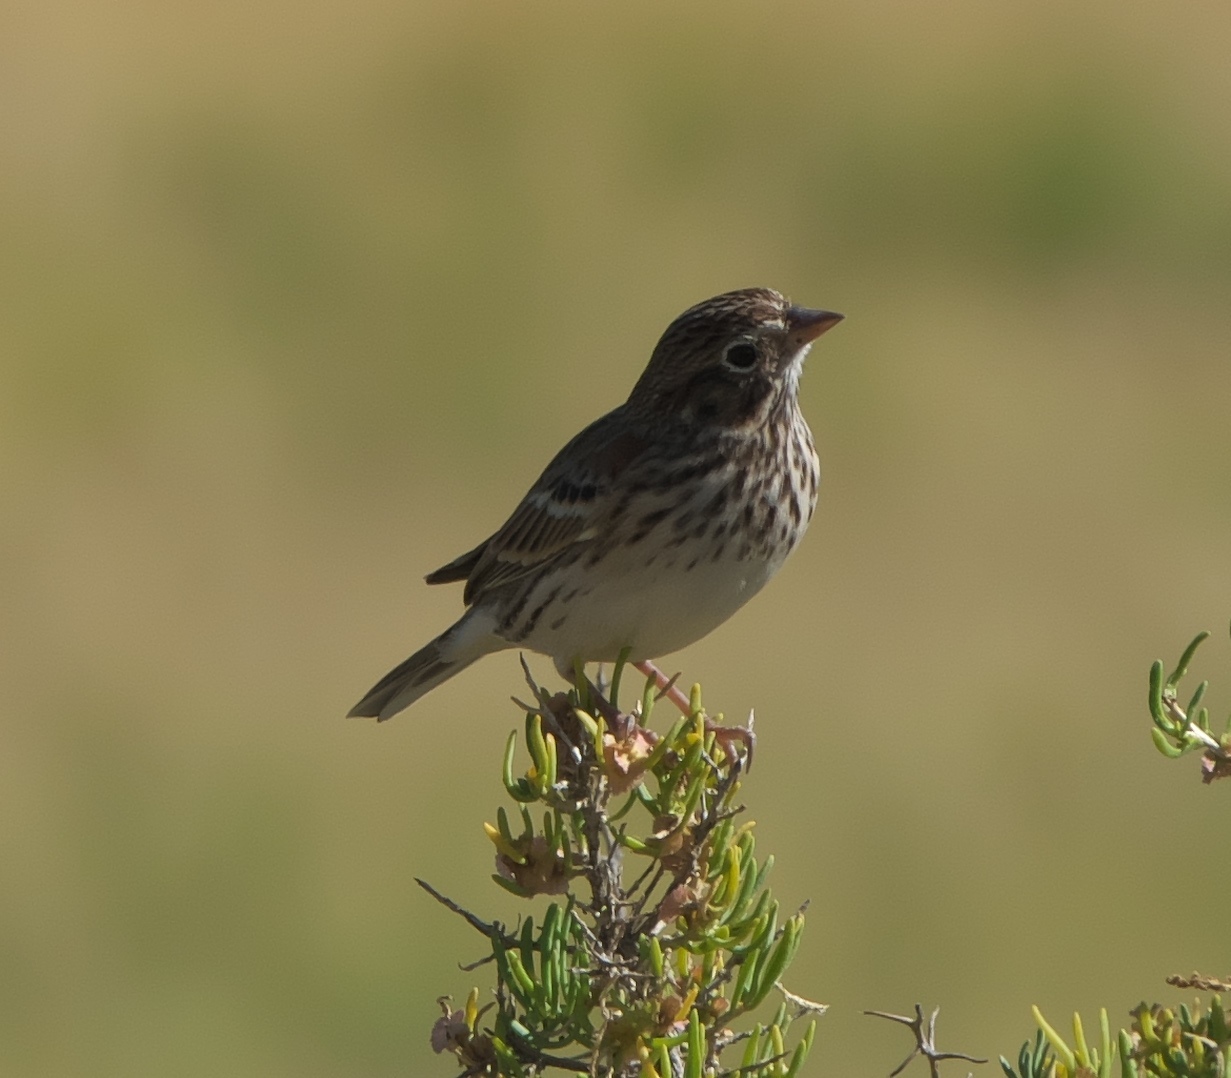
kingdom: Animalia
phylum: Chordata
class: Aves
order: Passeriformes
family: Passerellidae
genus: Pooecetes
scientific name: Pooecetes gramineus
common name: Vesper sparrow
